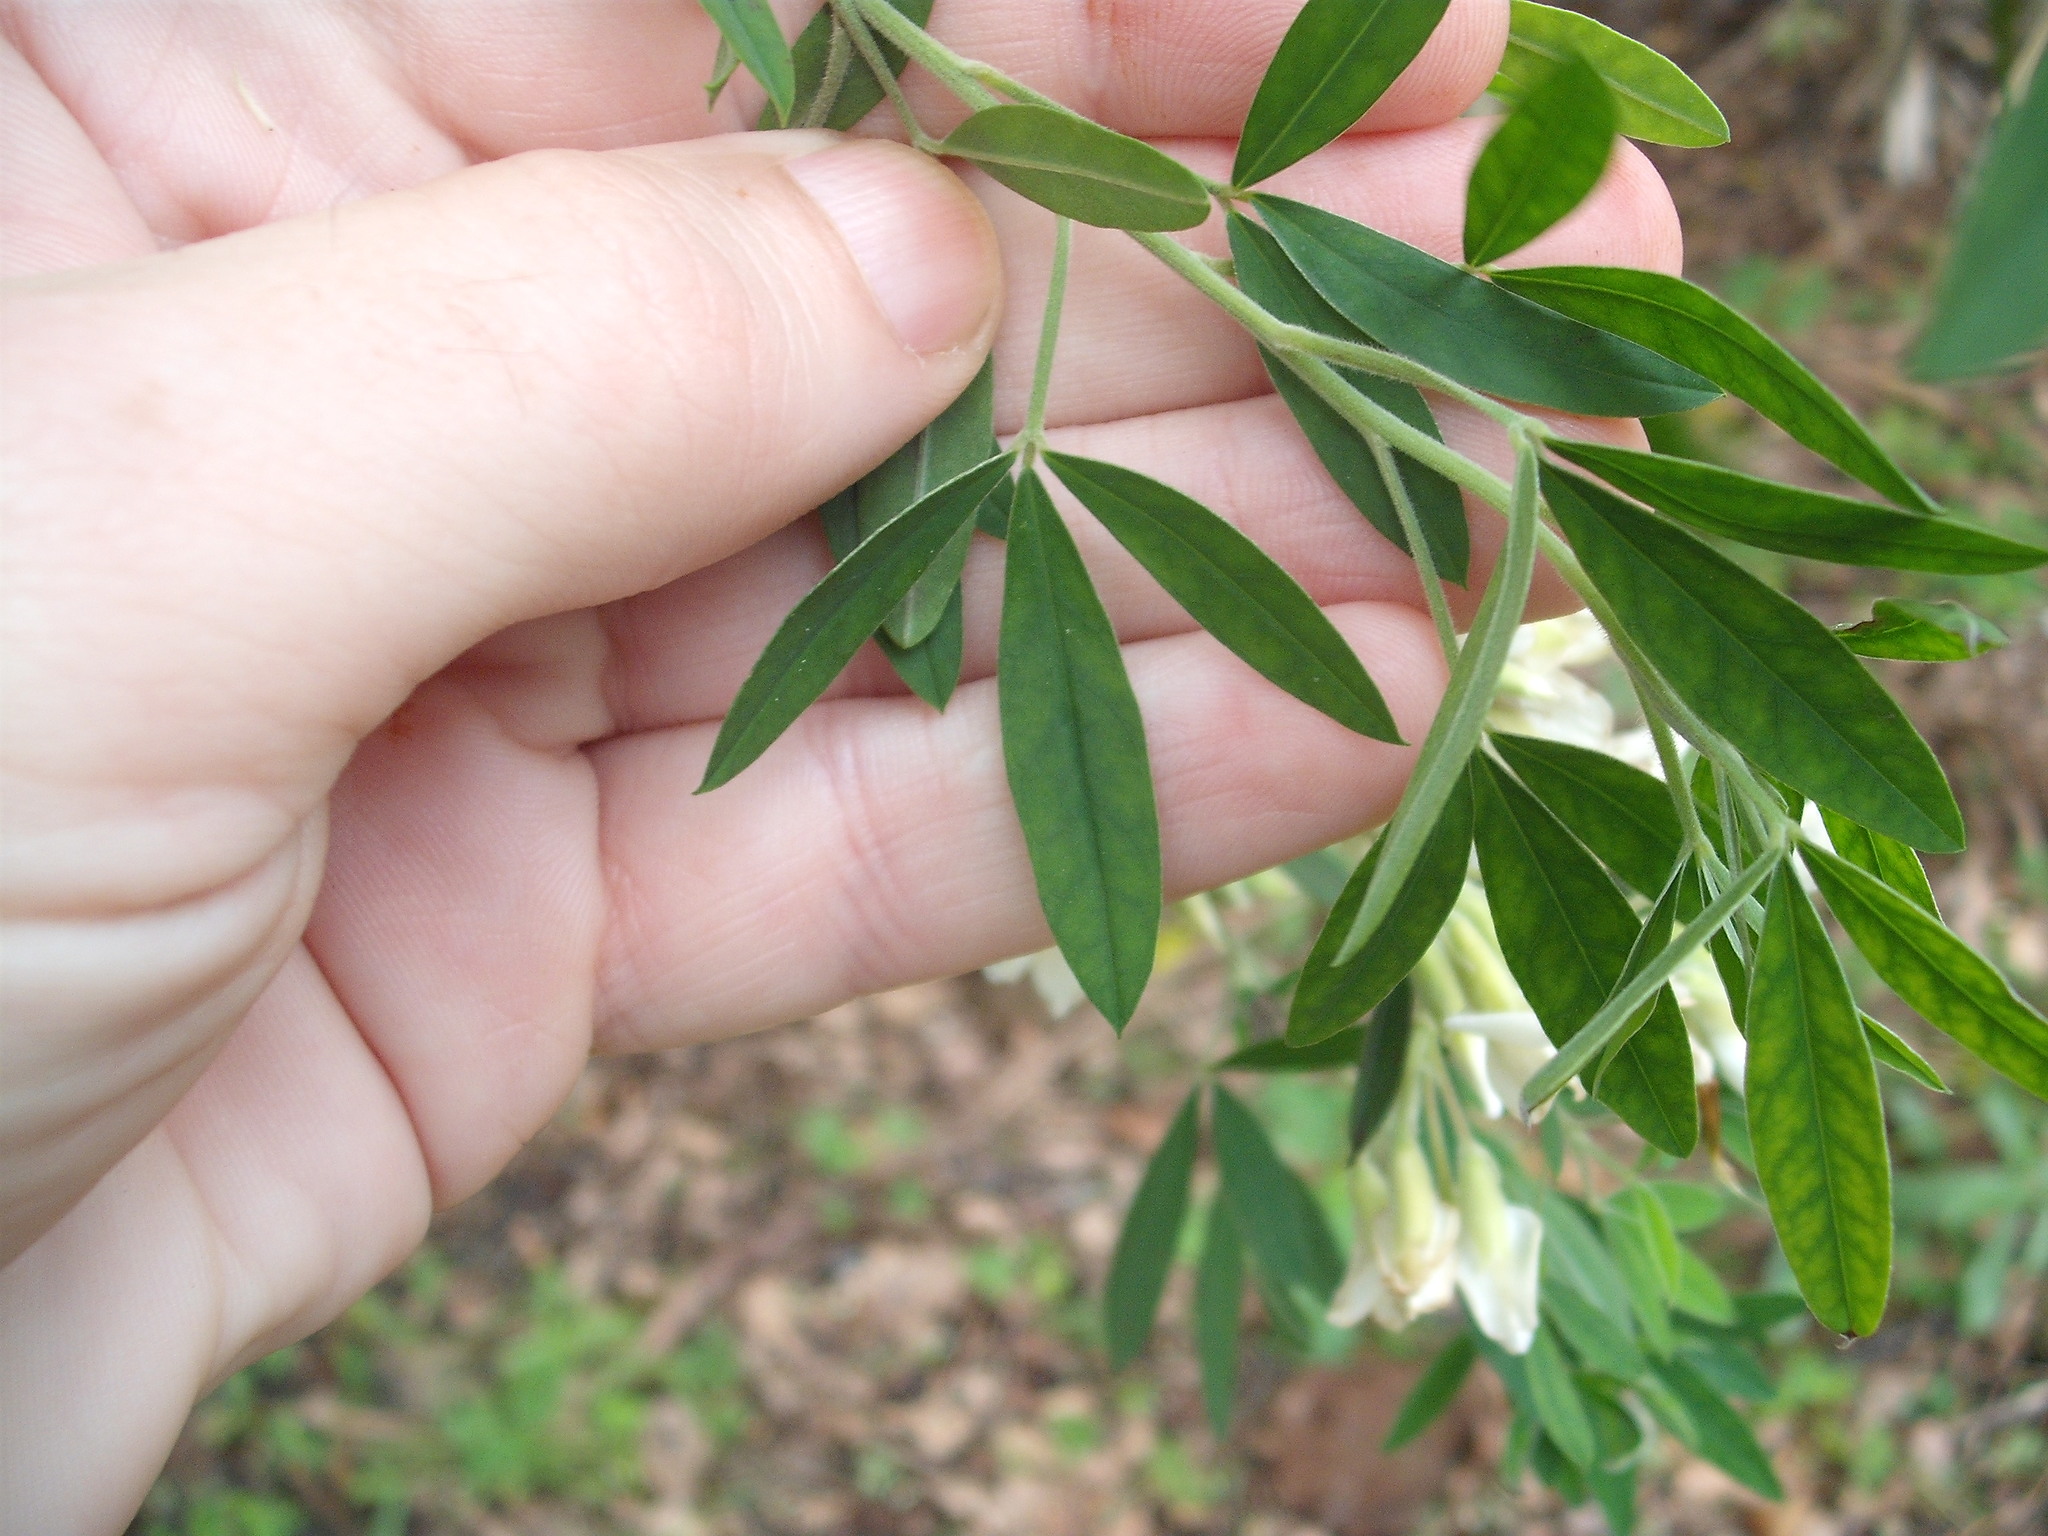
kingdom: Plantae
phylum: Tracheophyta
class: Magnoliopsida
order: Fabales
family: Fabaceae
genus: Chamaecytisus
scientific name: Chamaecytisus prolifer
